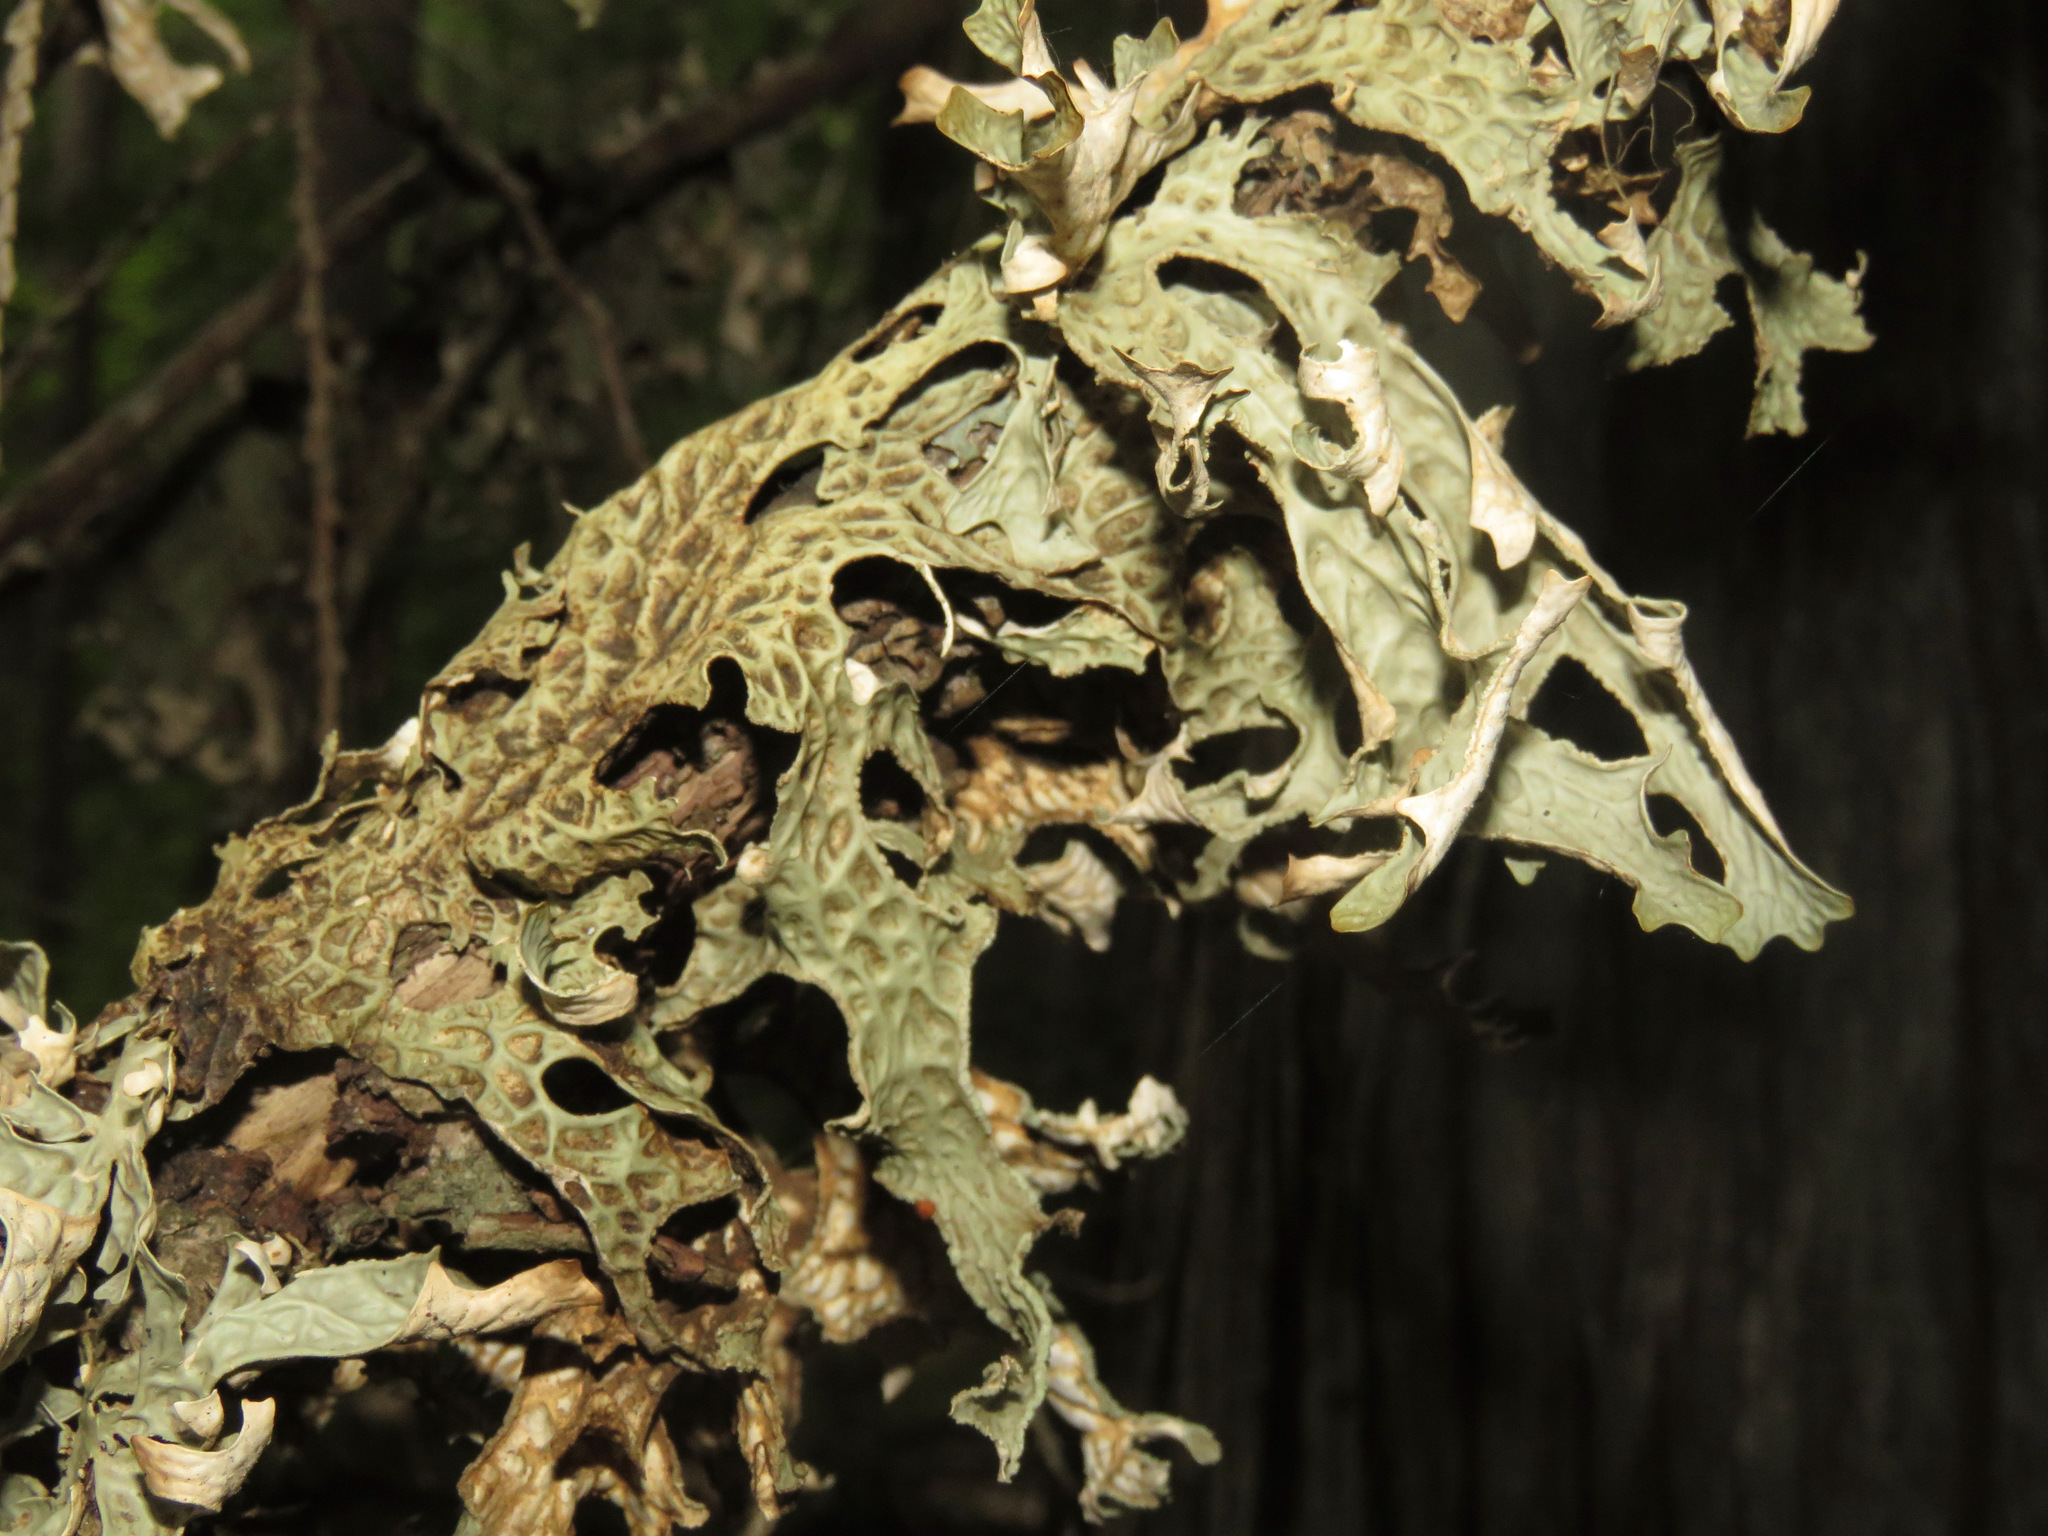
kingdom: Fungi
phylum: Ascomycota
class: Lecanoromycetes
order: Peltigerales
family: Lobariaceae
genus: Lobaria
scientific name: Lobaria pulmonaria
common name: Lungwort
